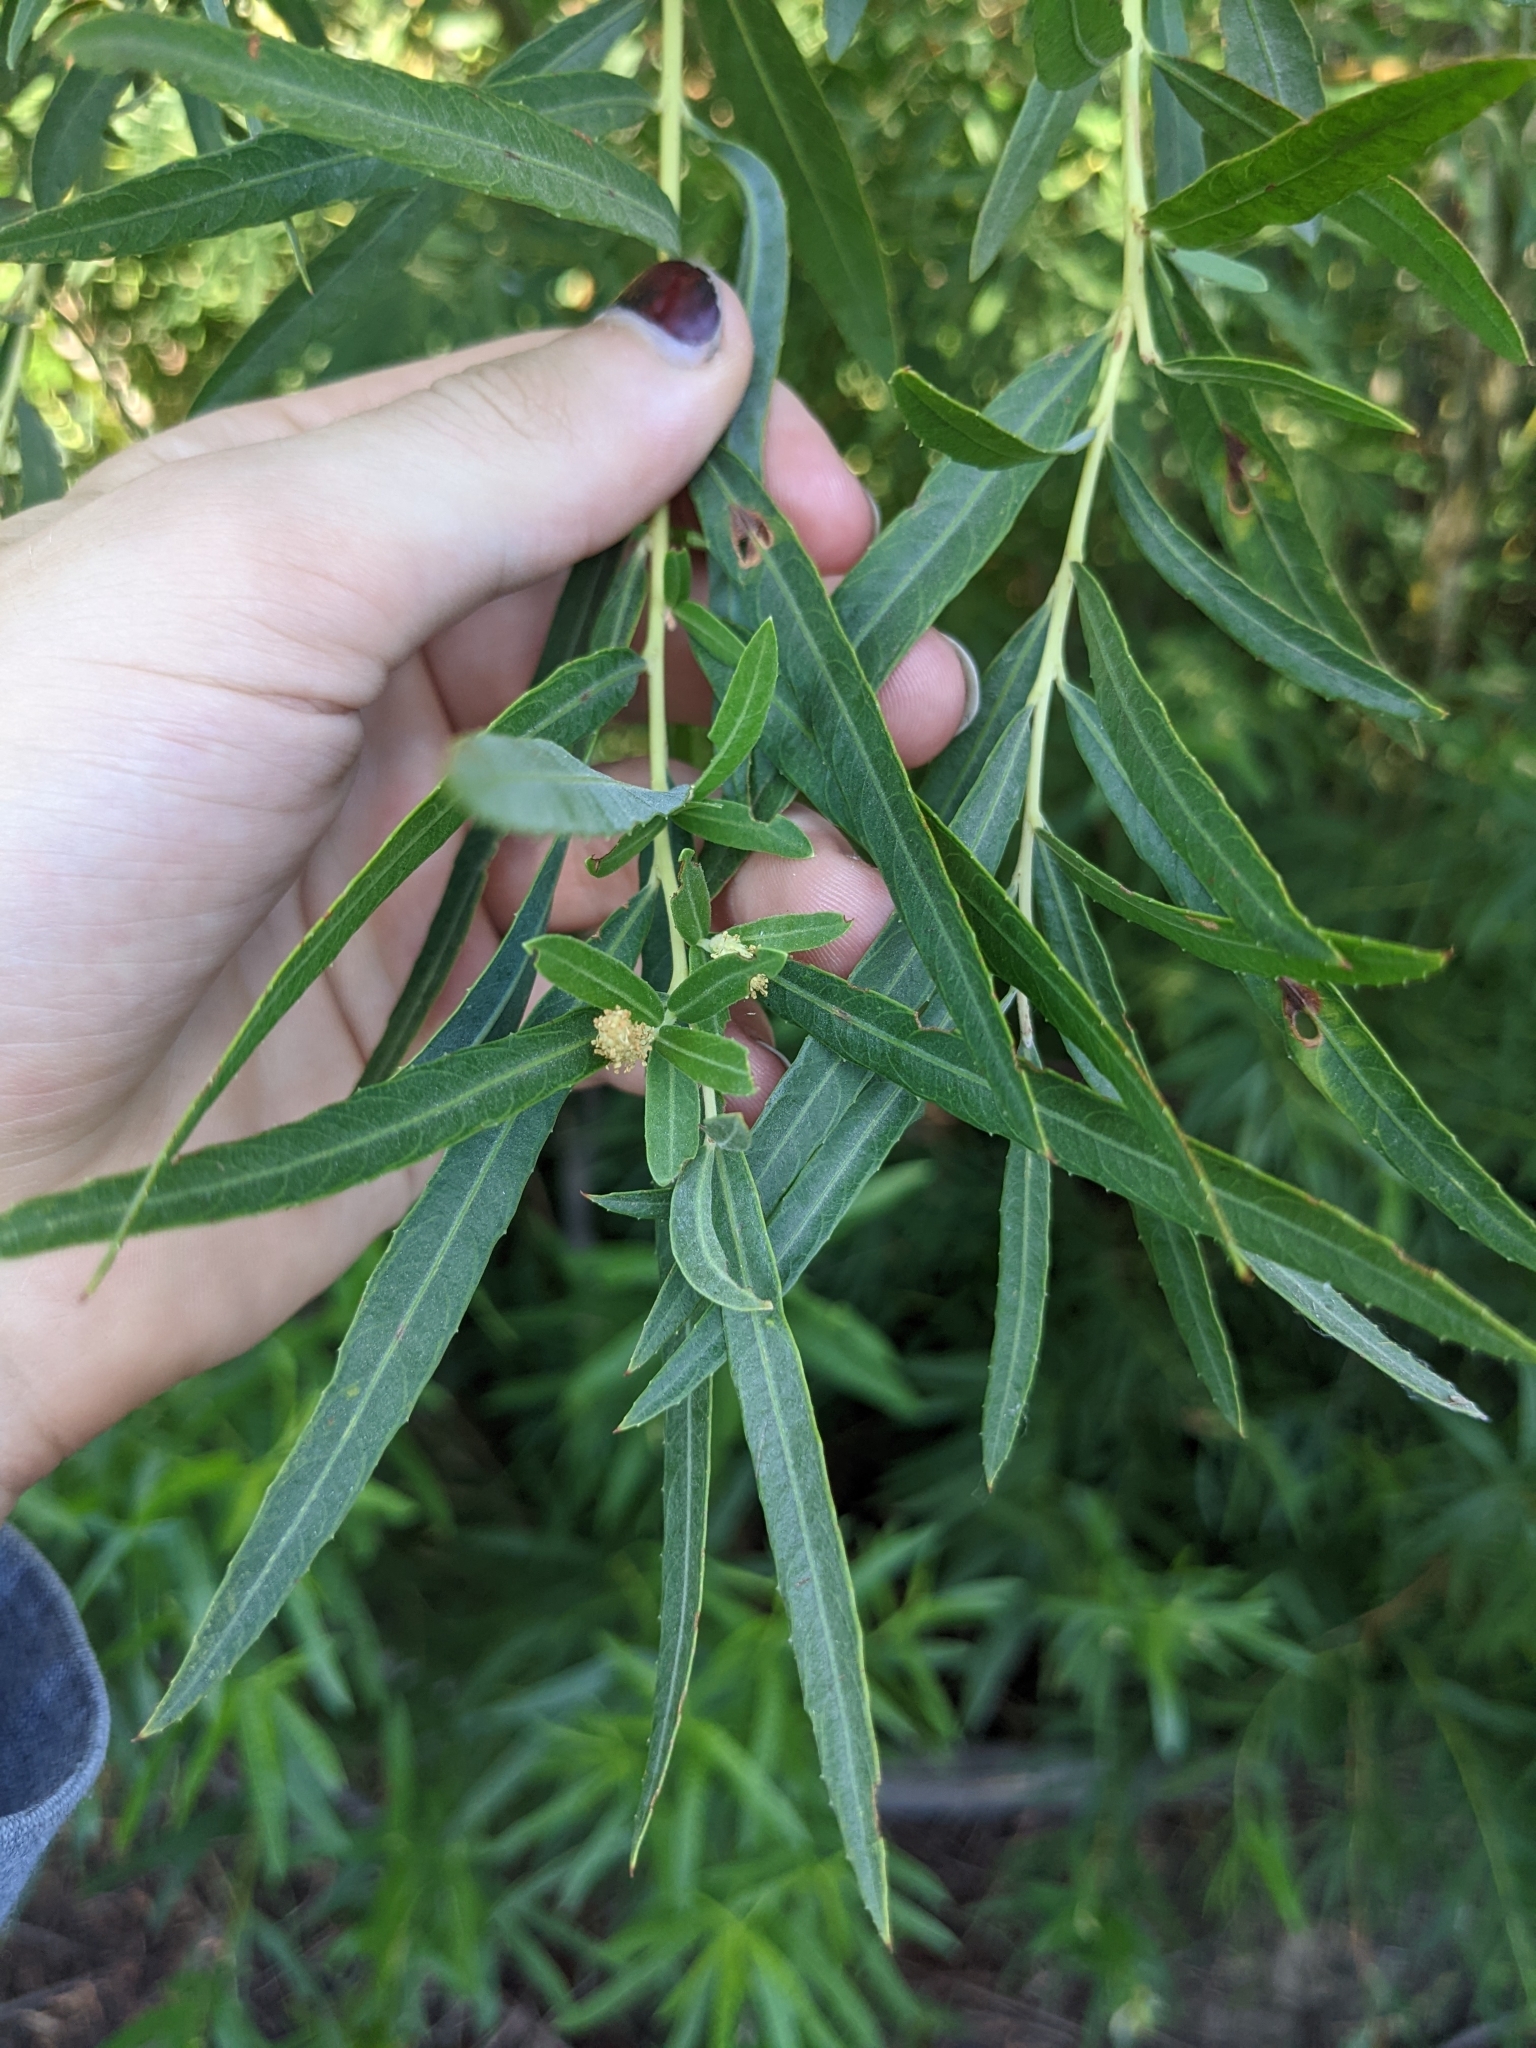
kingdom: Plantae
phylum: Tracheophyta
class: Magnoliopsida
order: Malpighiales
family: Salicaceae
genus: Salix
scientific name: Salix exigua
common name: Coyote willow
